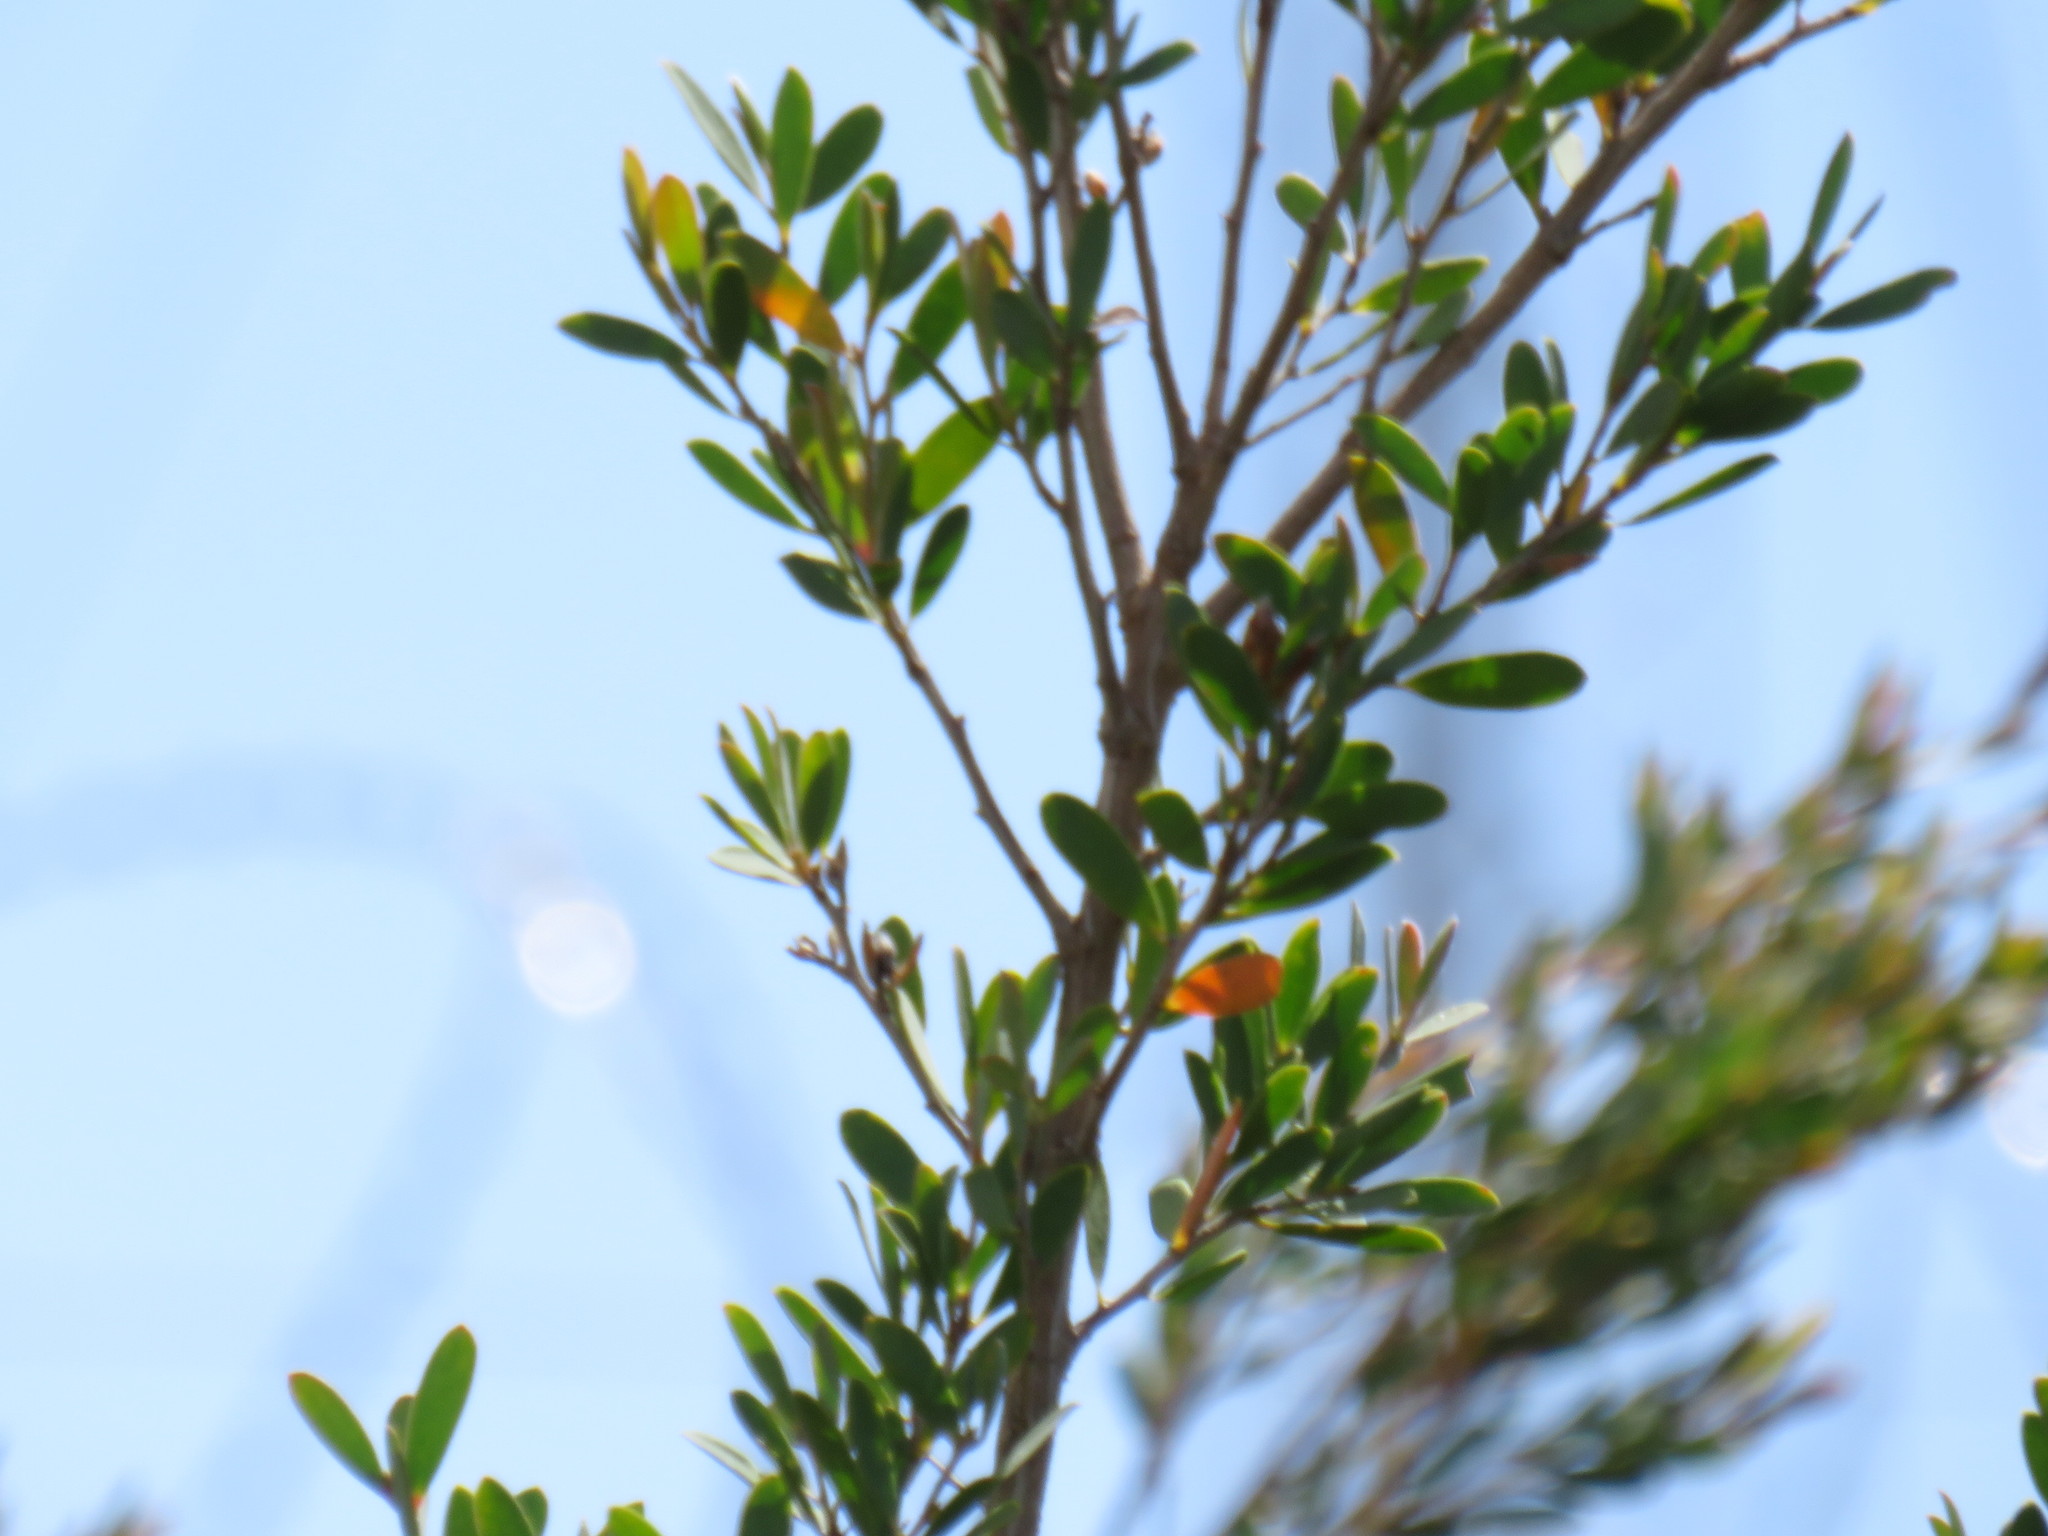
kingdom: Plantae
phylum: Tracheophyta
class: Magnoliopsida
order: Myrtales
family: Myrtaceae
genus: Leptospermum
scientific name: Leptospermum laevigatum
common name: Australian teatree
